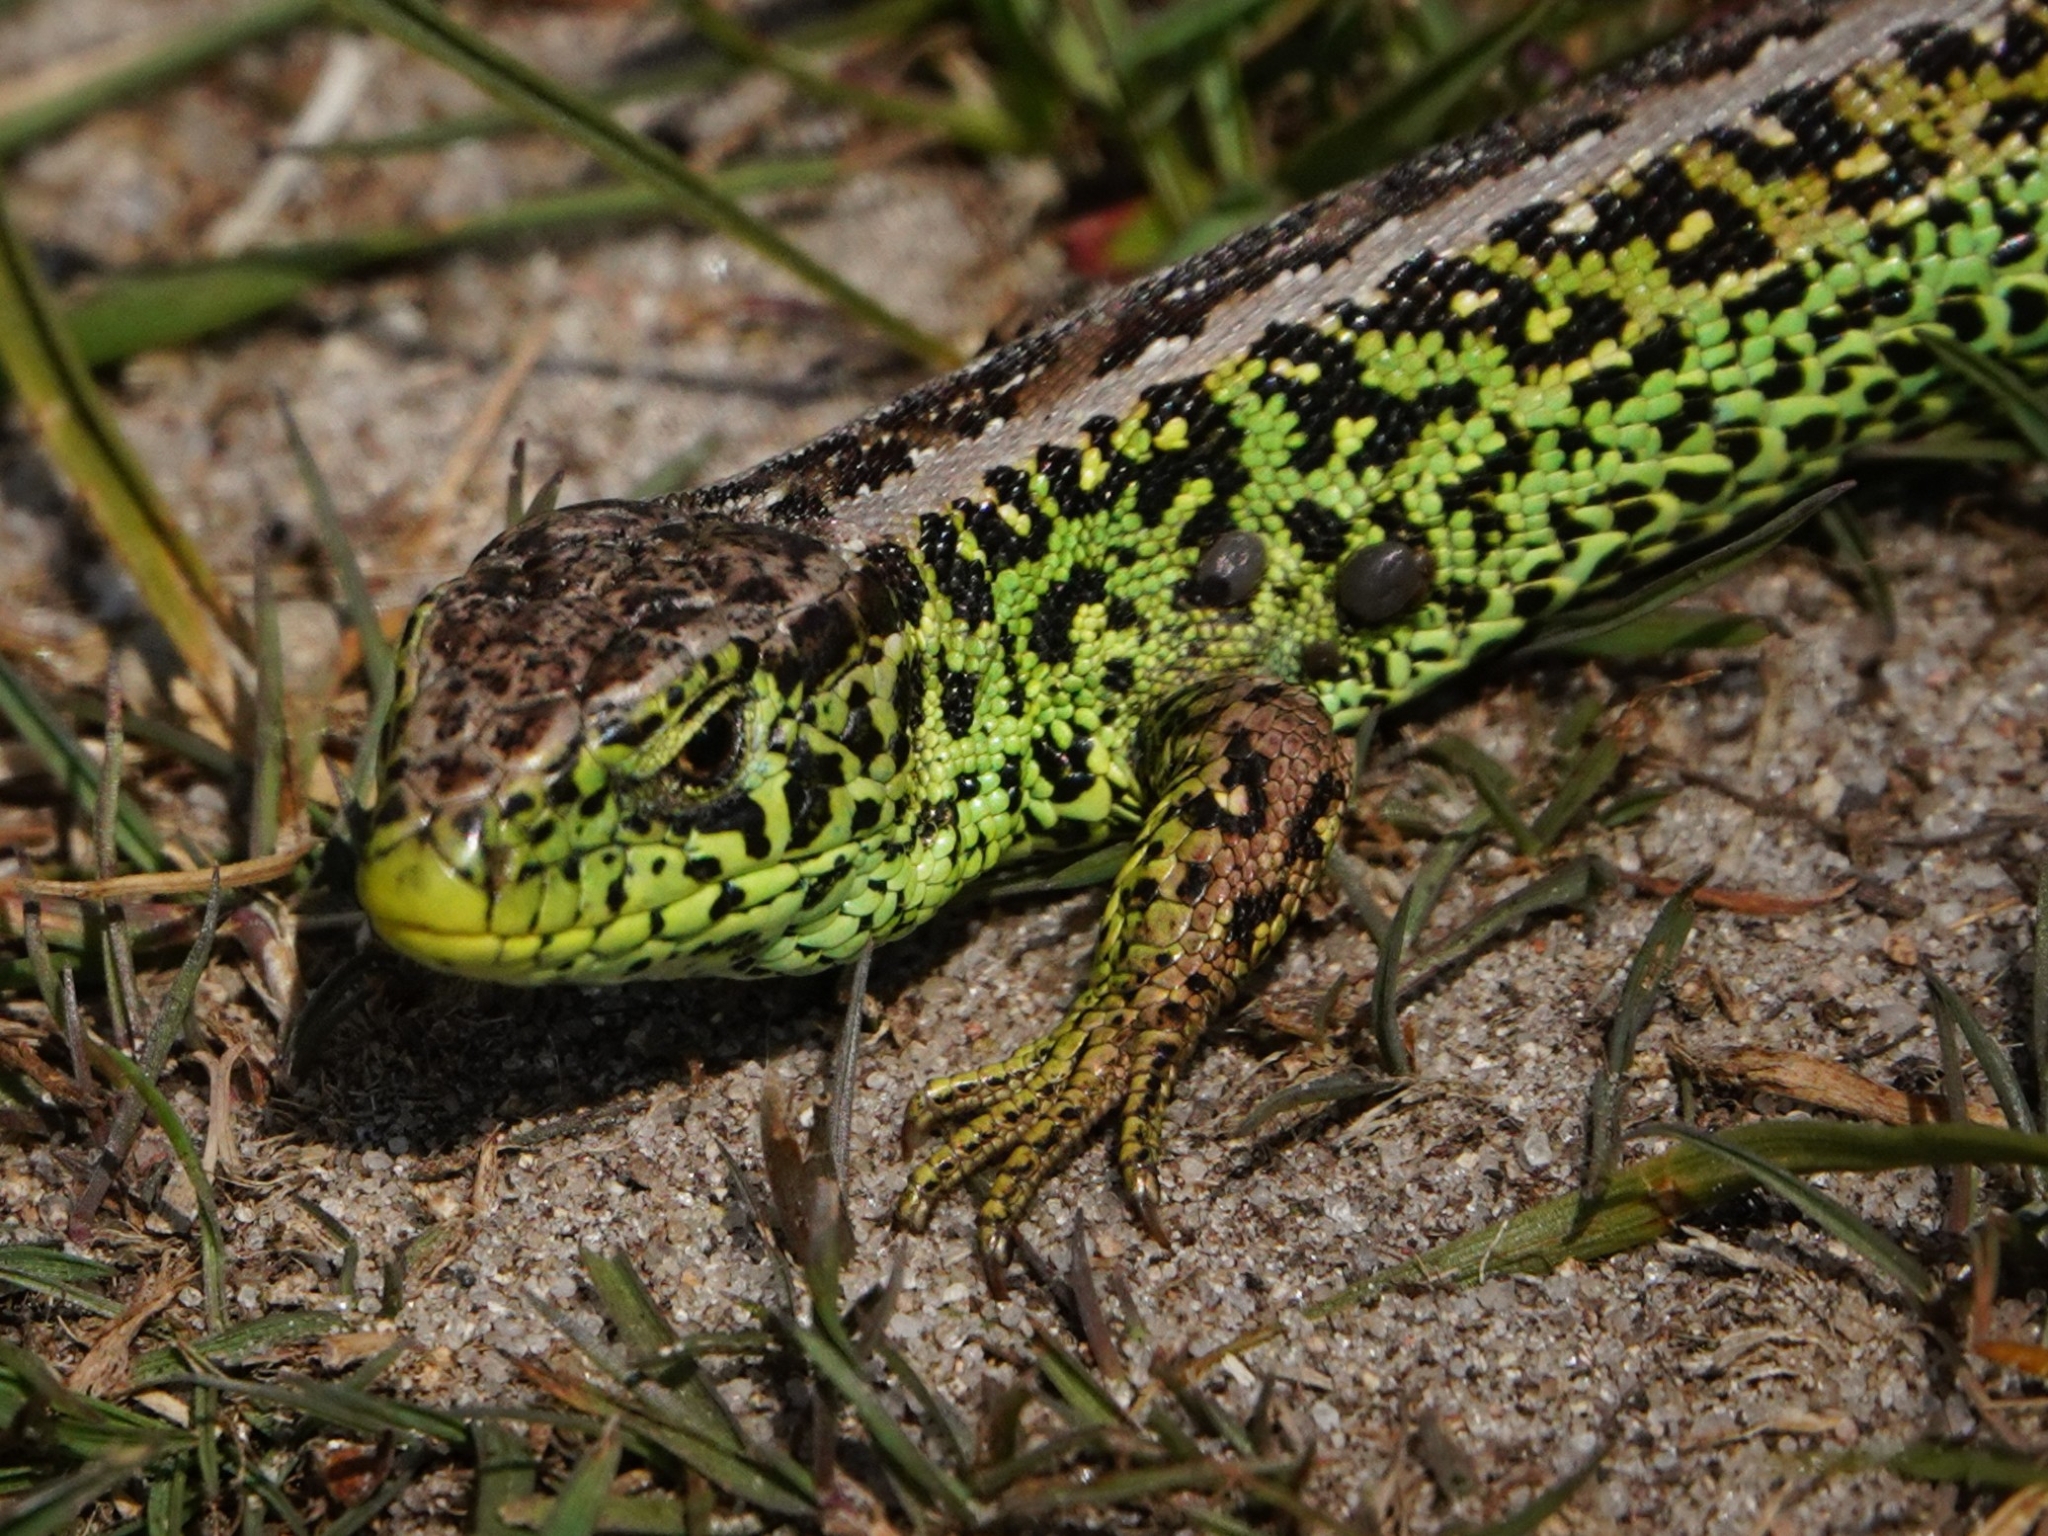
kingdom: Animalia
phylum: Chordata
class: Squamata
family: Lacertidae
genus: Lacerta
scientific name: Lacerta agilis
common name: Sand lizard
